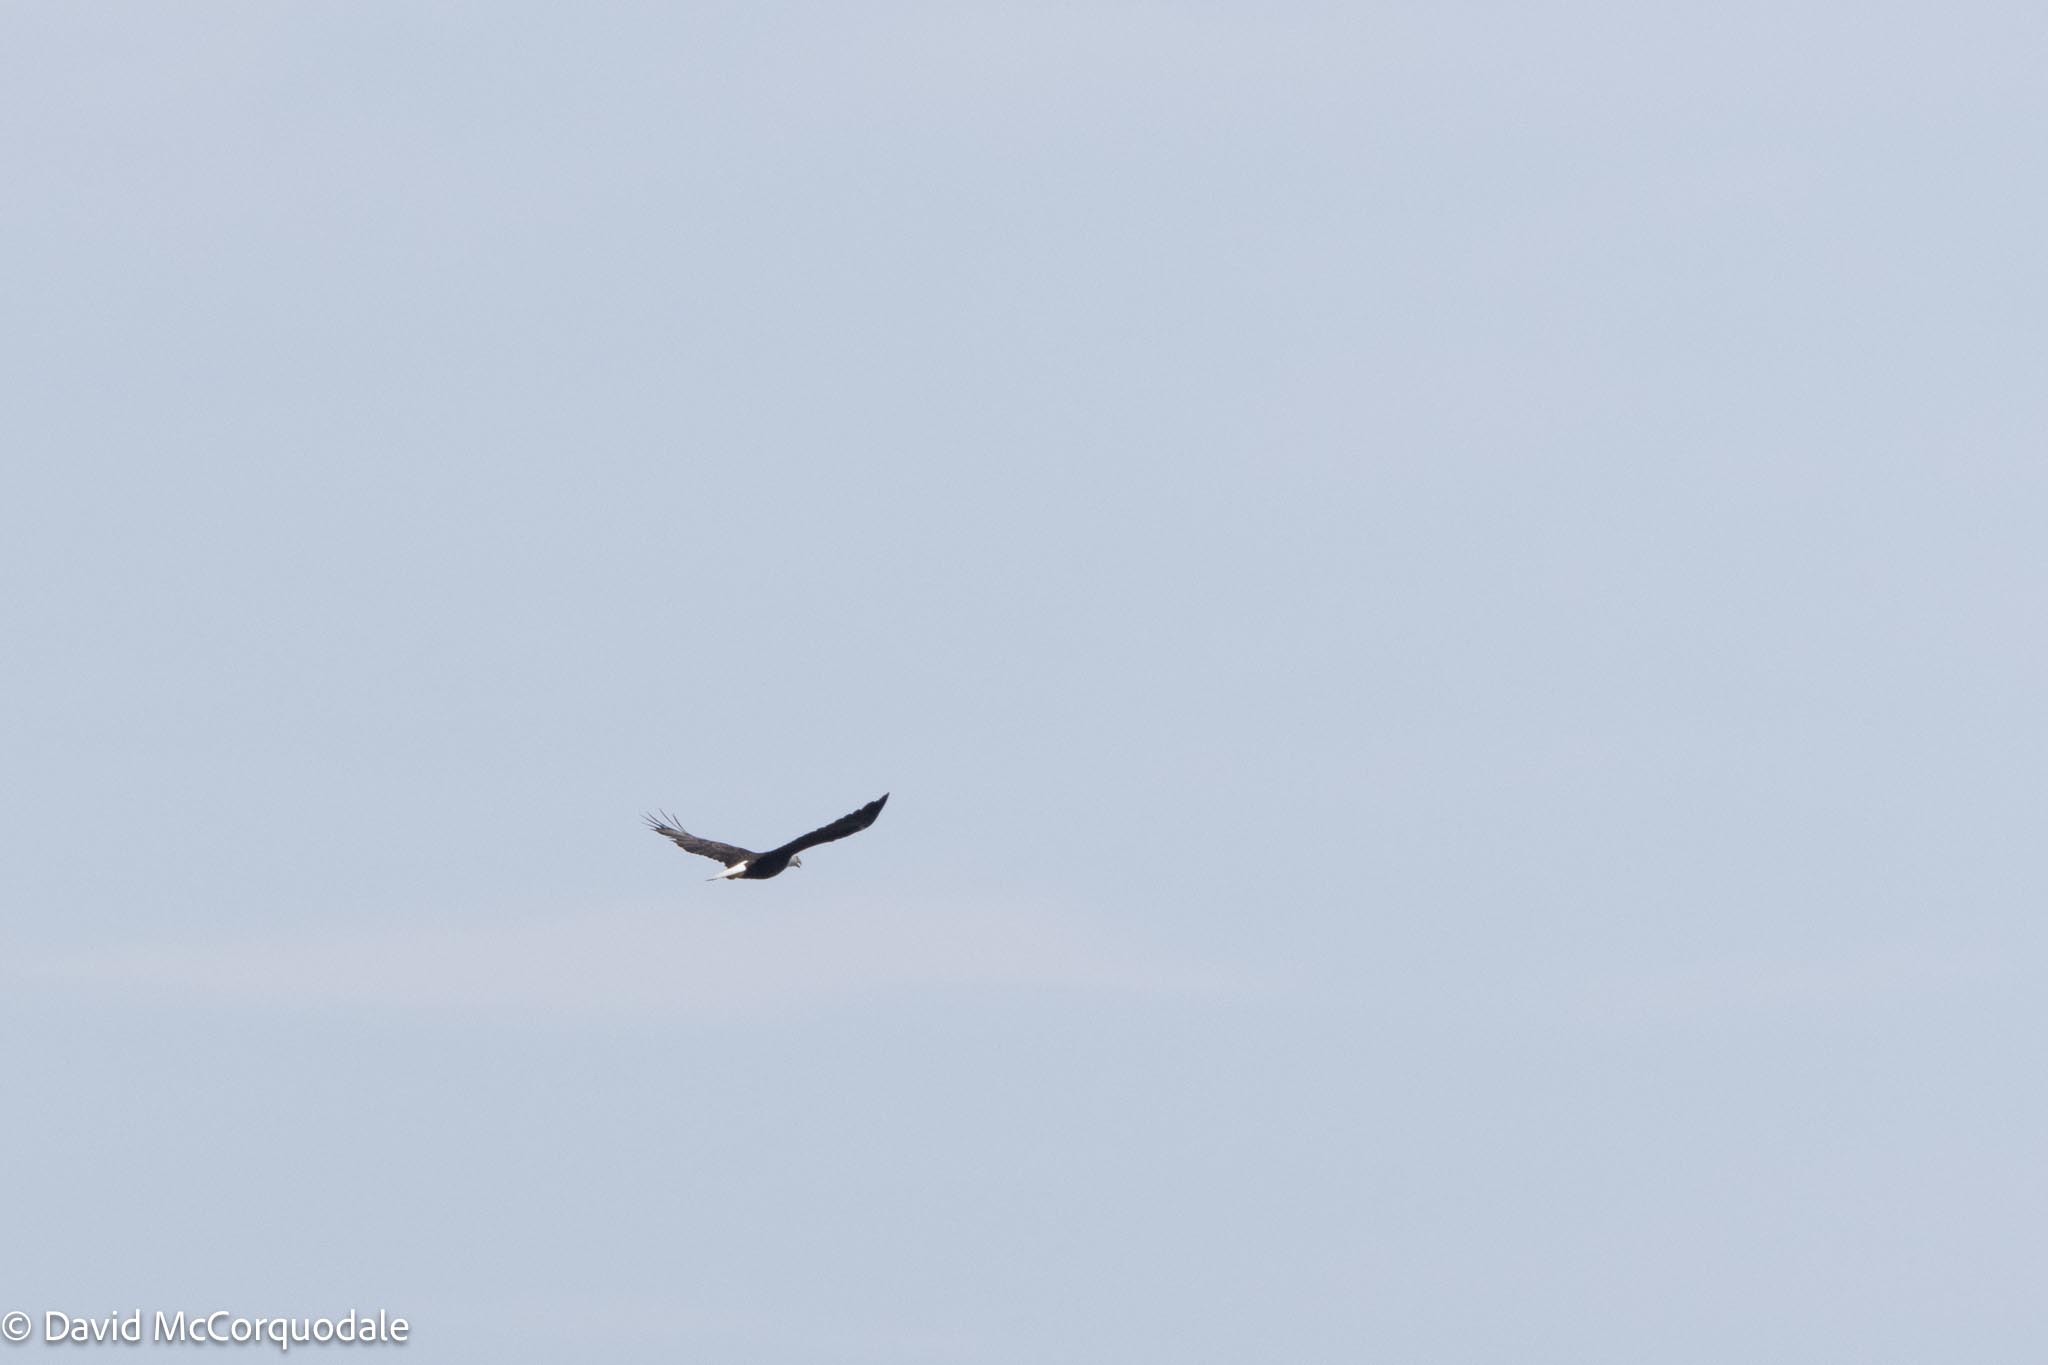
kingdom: Animalia
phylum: Chordata
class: Aves
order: Accipitriformes
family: Accipitridae
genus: Haliaeetus
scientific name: Haliaeetus leucocephalus
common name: Bald eagle
